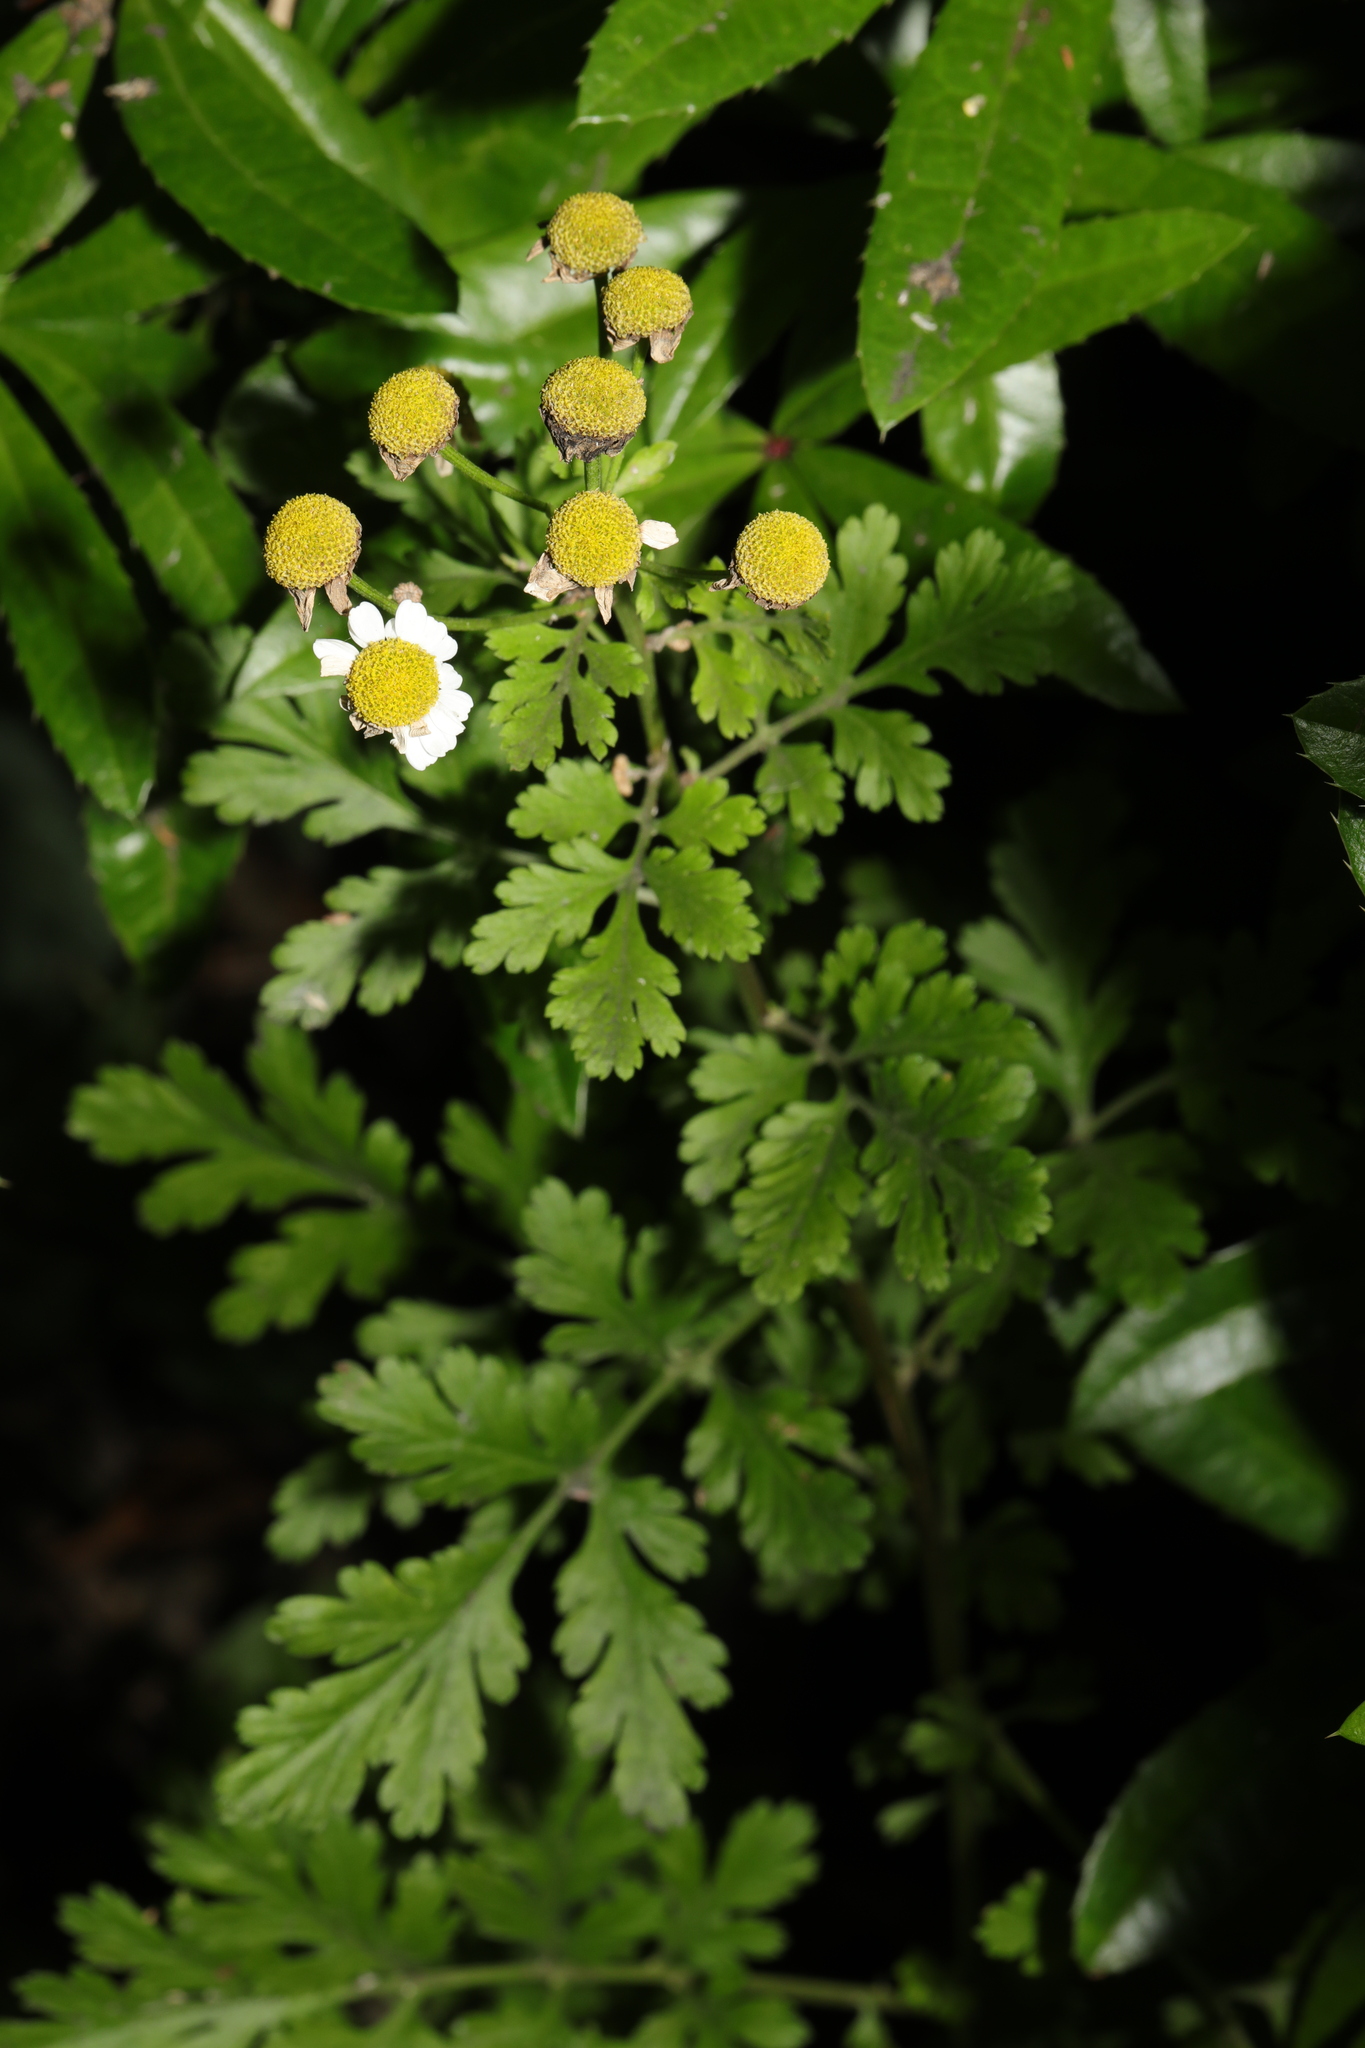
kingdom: Plantae
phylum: Tracheophyta
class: Magnoliopsida
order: Asterales
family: Asteraceae
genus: Tanacetum
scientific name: Tanacetum parthenium
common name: Feverfew
